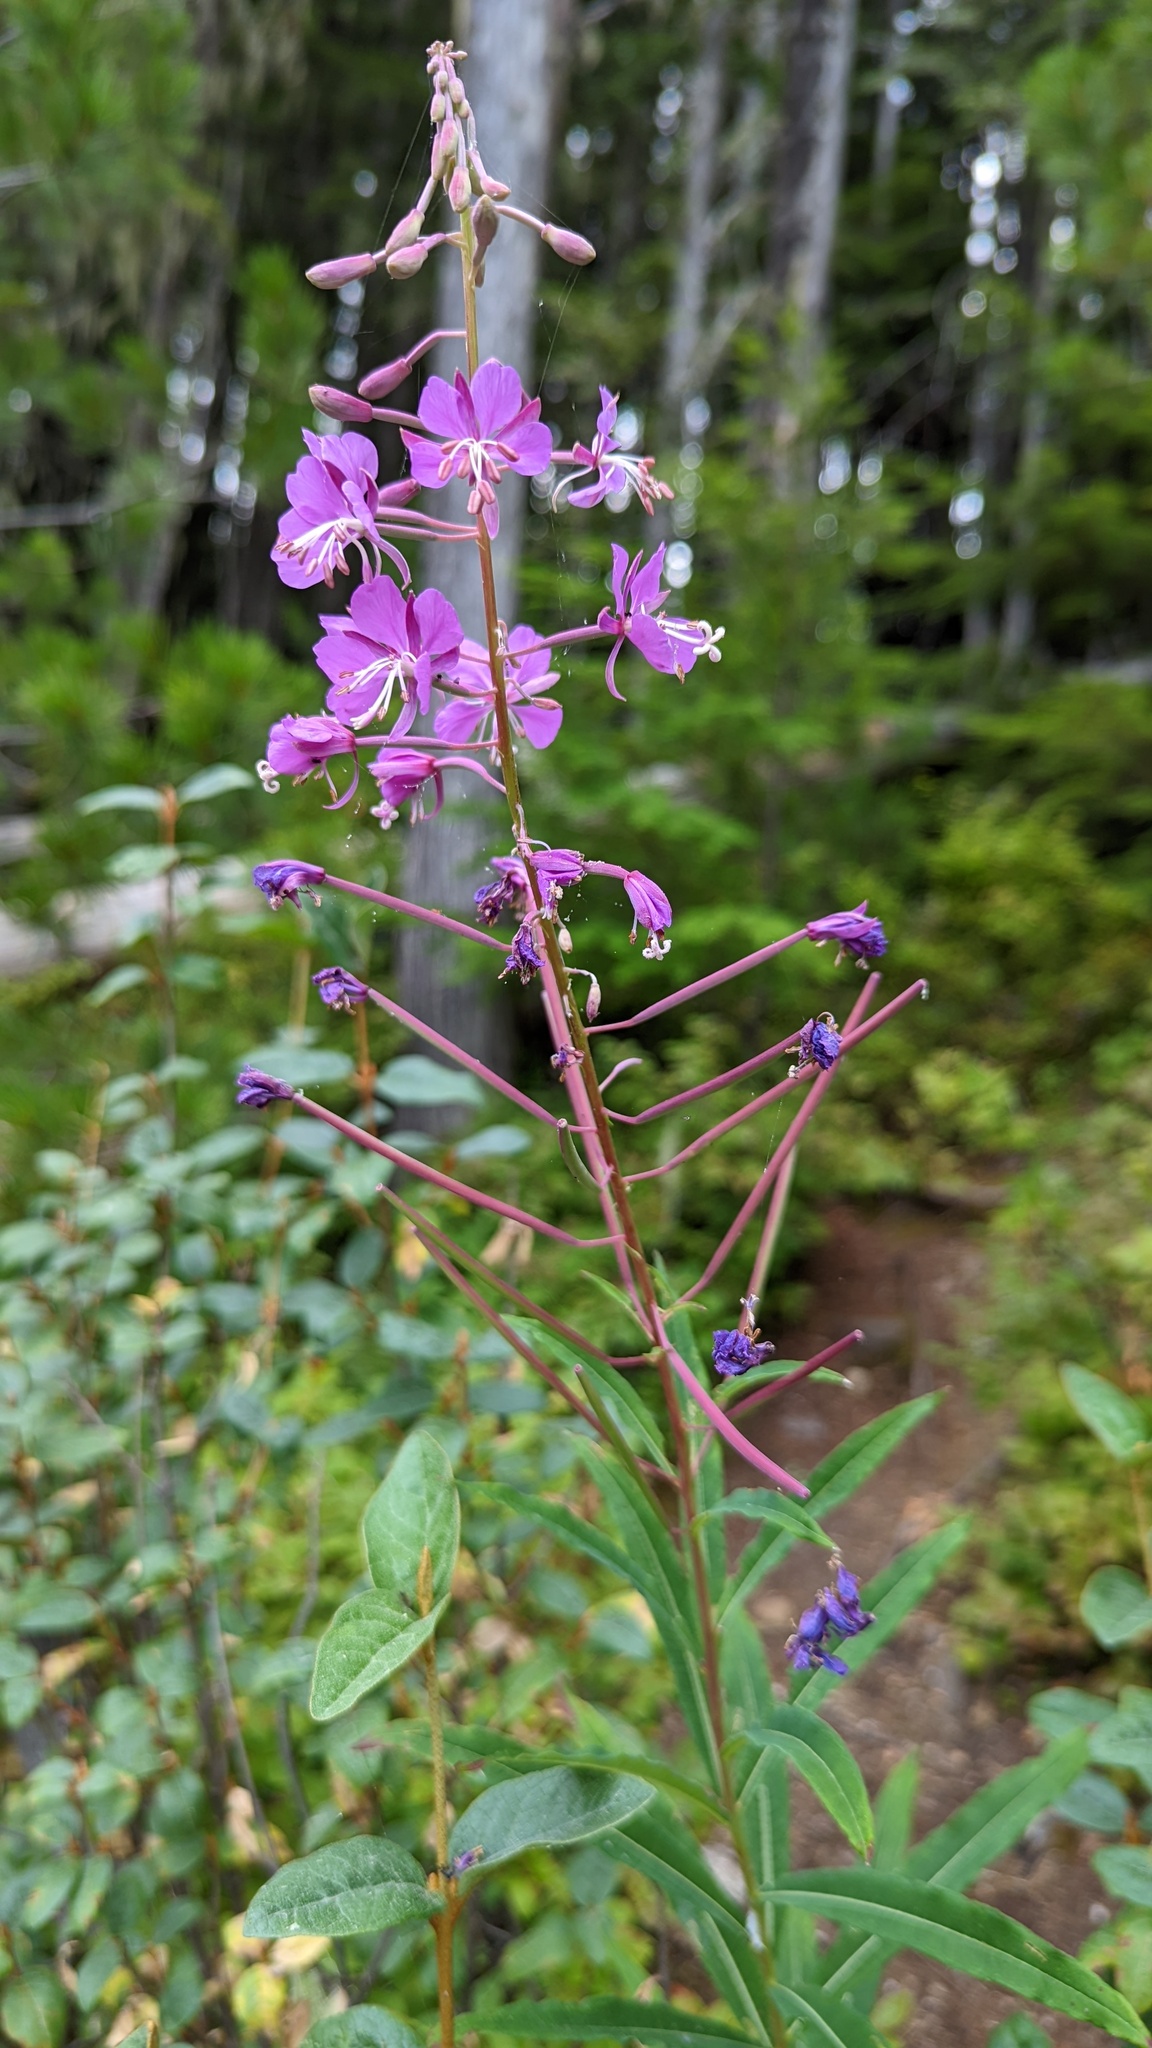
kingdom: Plantae
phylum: Tracheophyta
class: Magnoliopsida
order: Myrtales
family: Onagraceae
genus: Chamaenerion
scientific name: Chamaenerion angustifolium
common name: Fireweed
